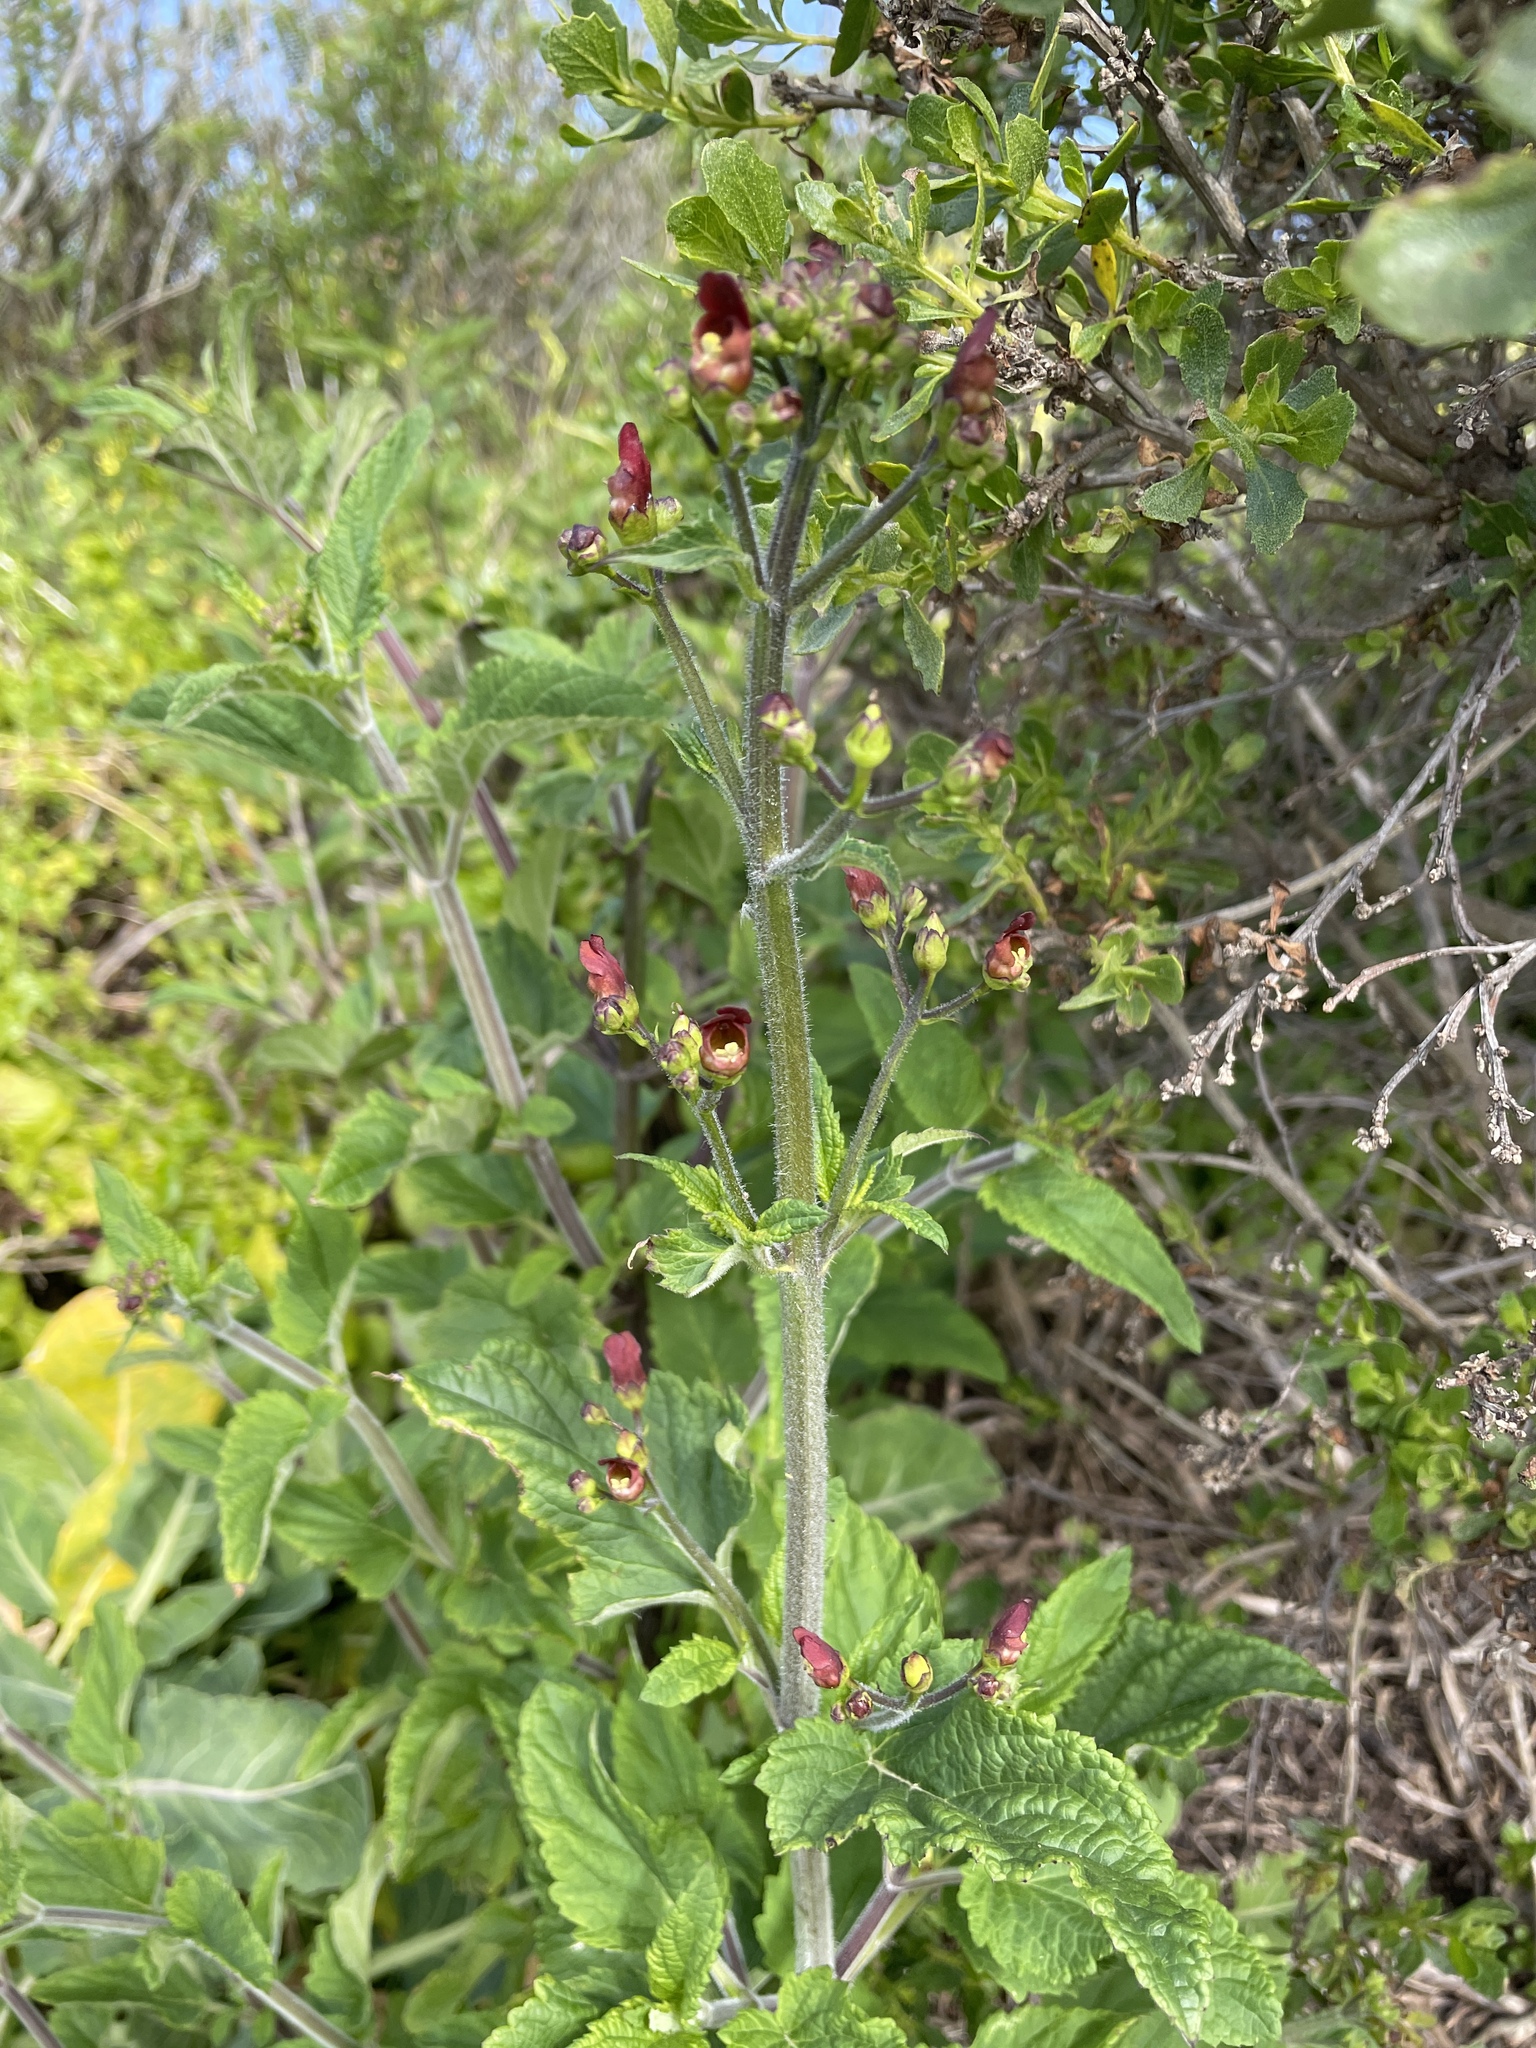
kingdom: Plantae
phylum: Tracheophyta
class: Magnoliopsida
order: Lamiales
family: Scrophulariaceae
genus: Scrophularia
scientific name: Scrophularia californica
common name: California figwort
